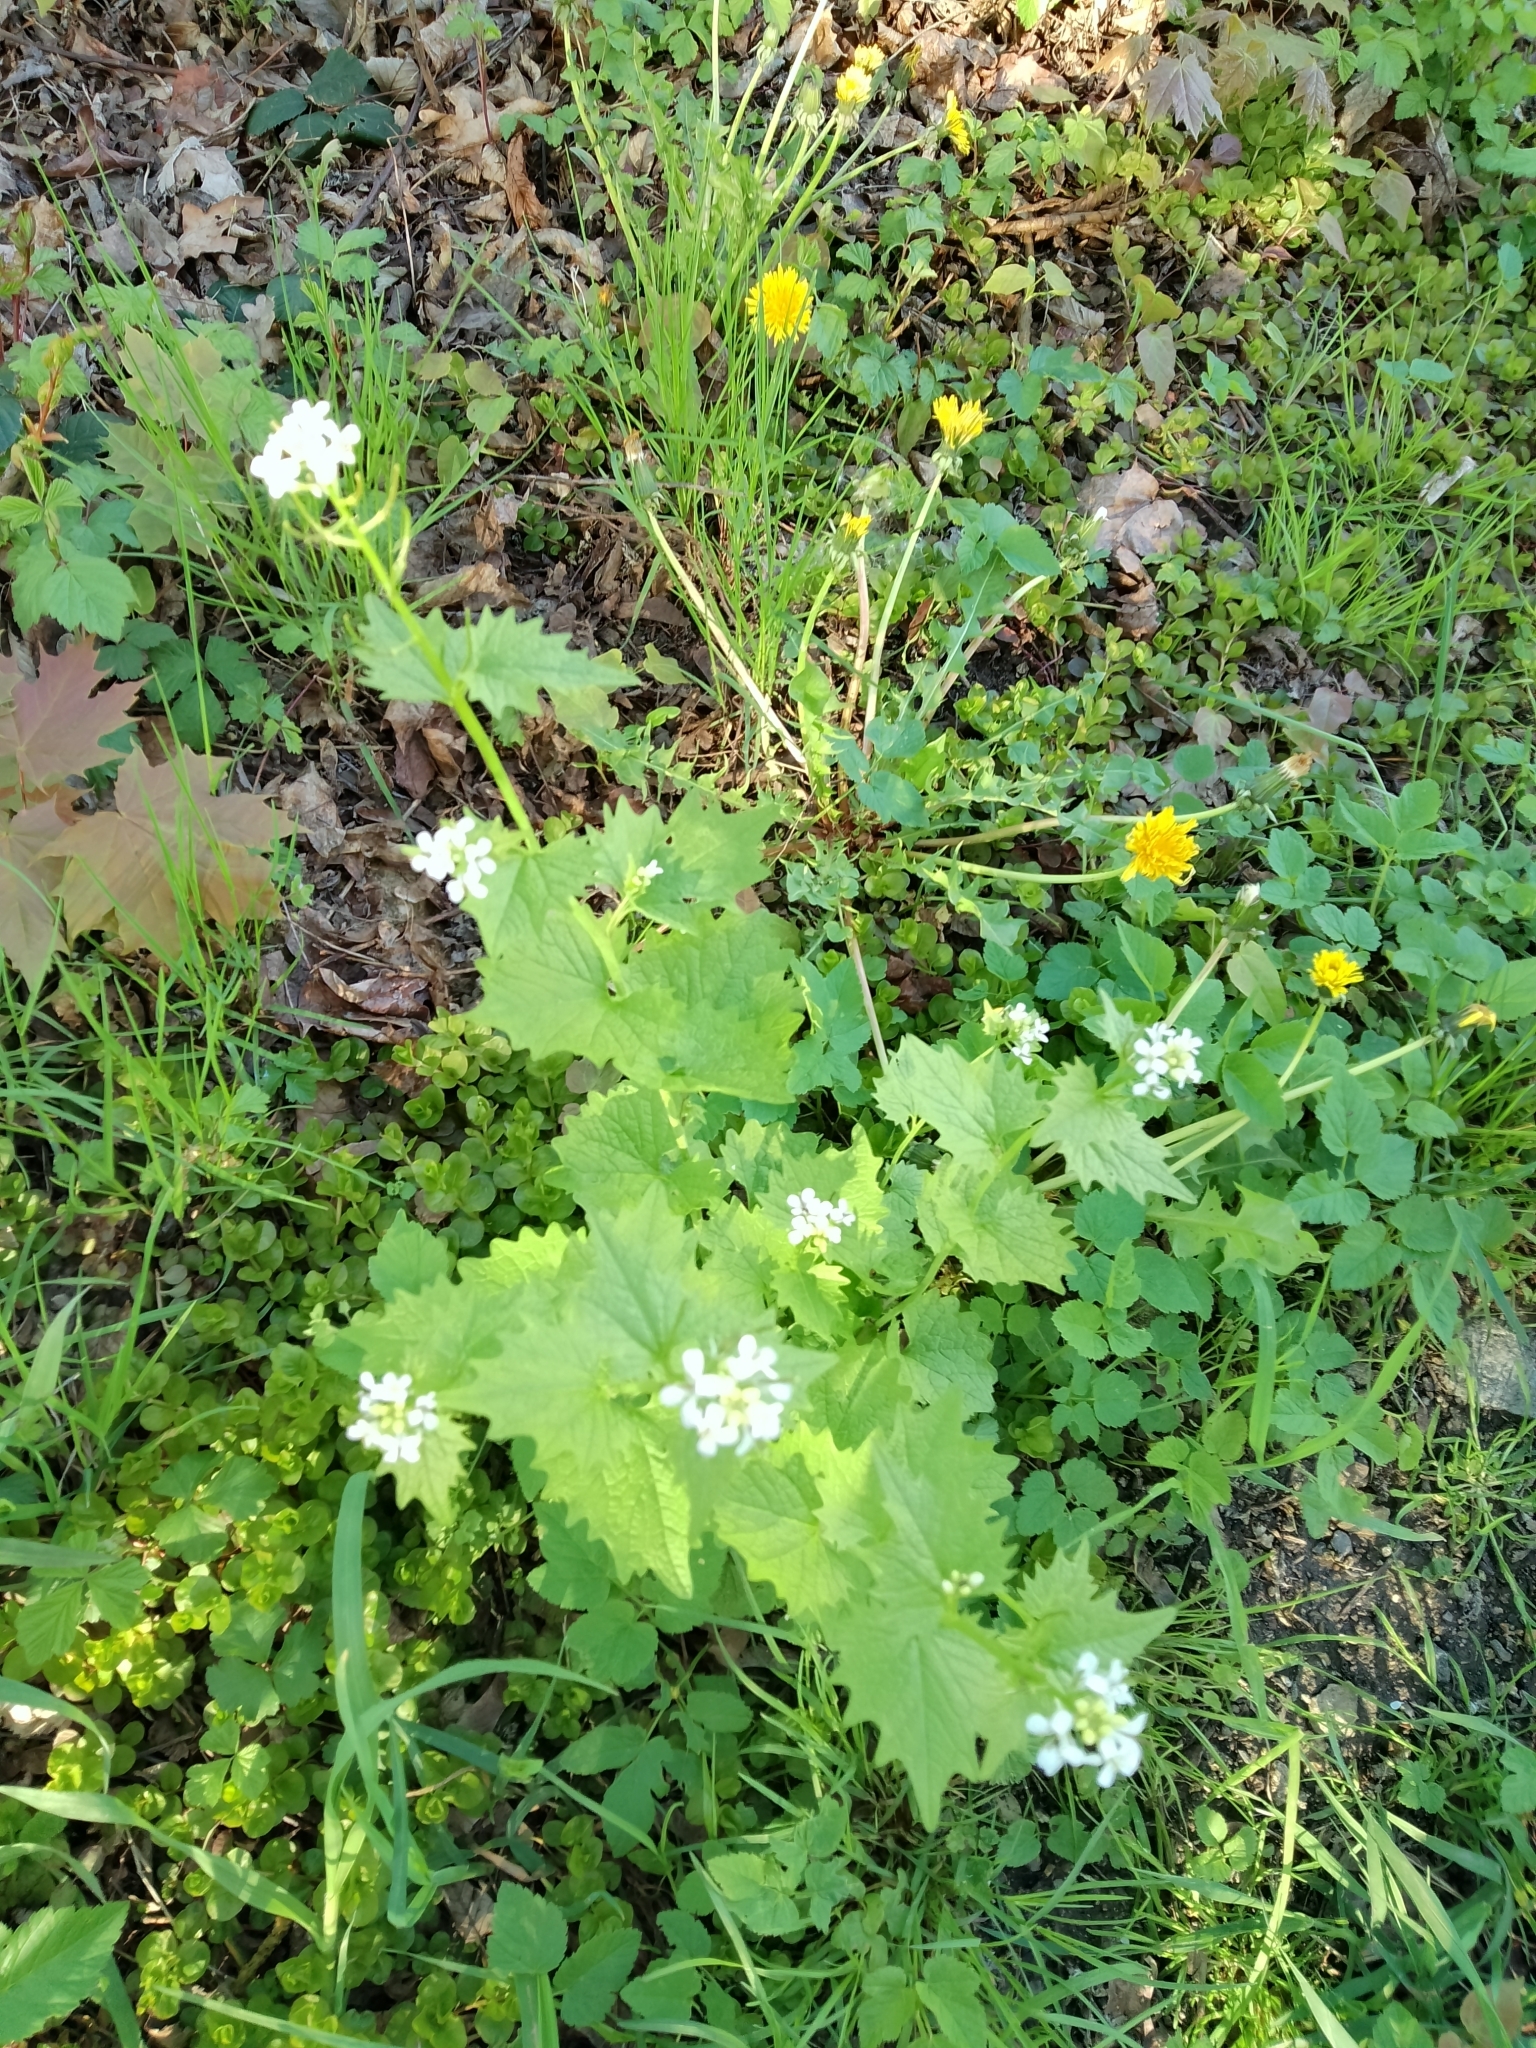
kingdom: Plantae
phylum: Tracheophyta
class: Magnoliopsida
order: Brassicales
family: Brassicaceae
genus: Alliaria
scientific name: Alliaria petiolata
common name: Garlic mustard
